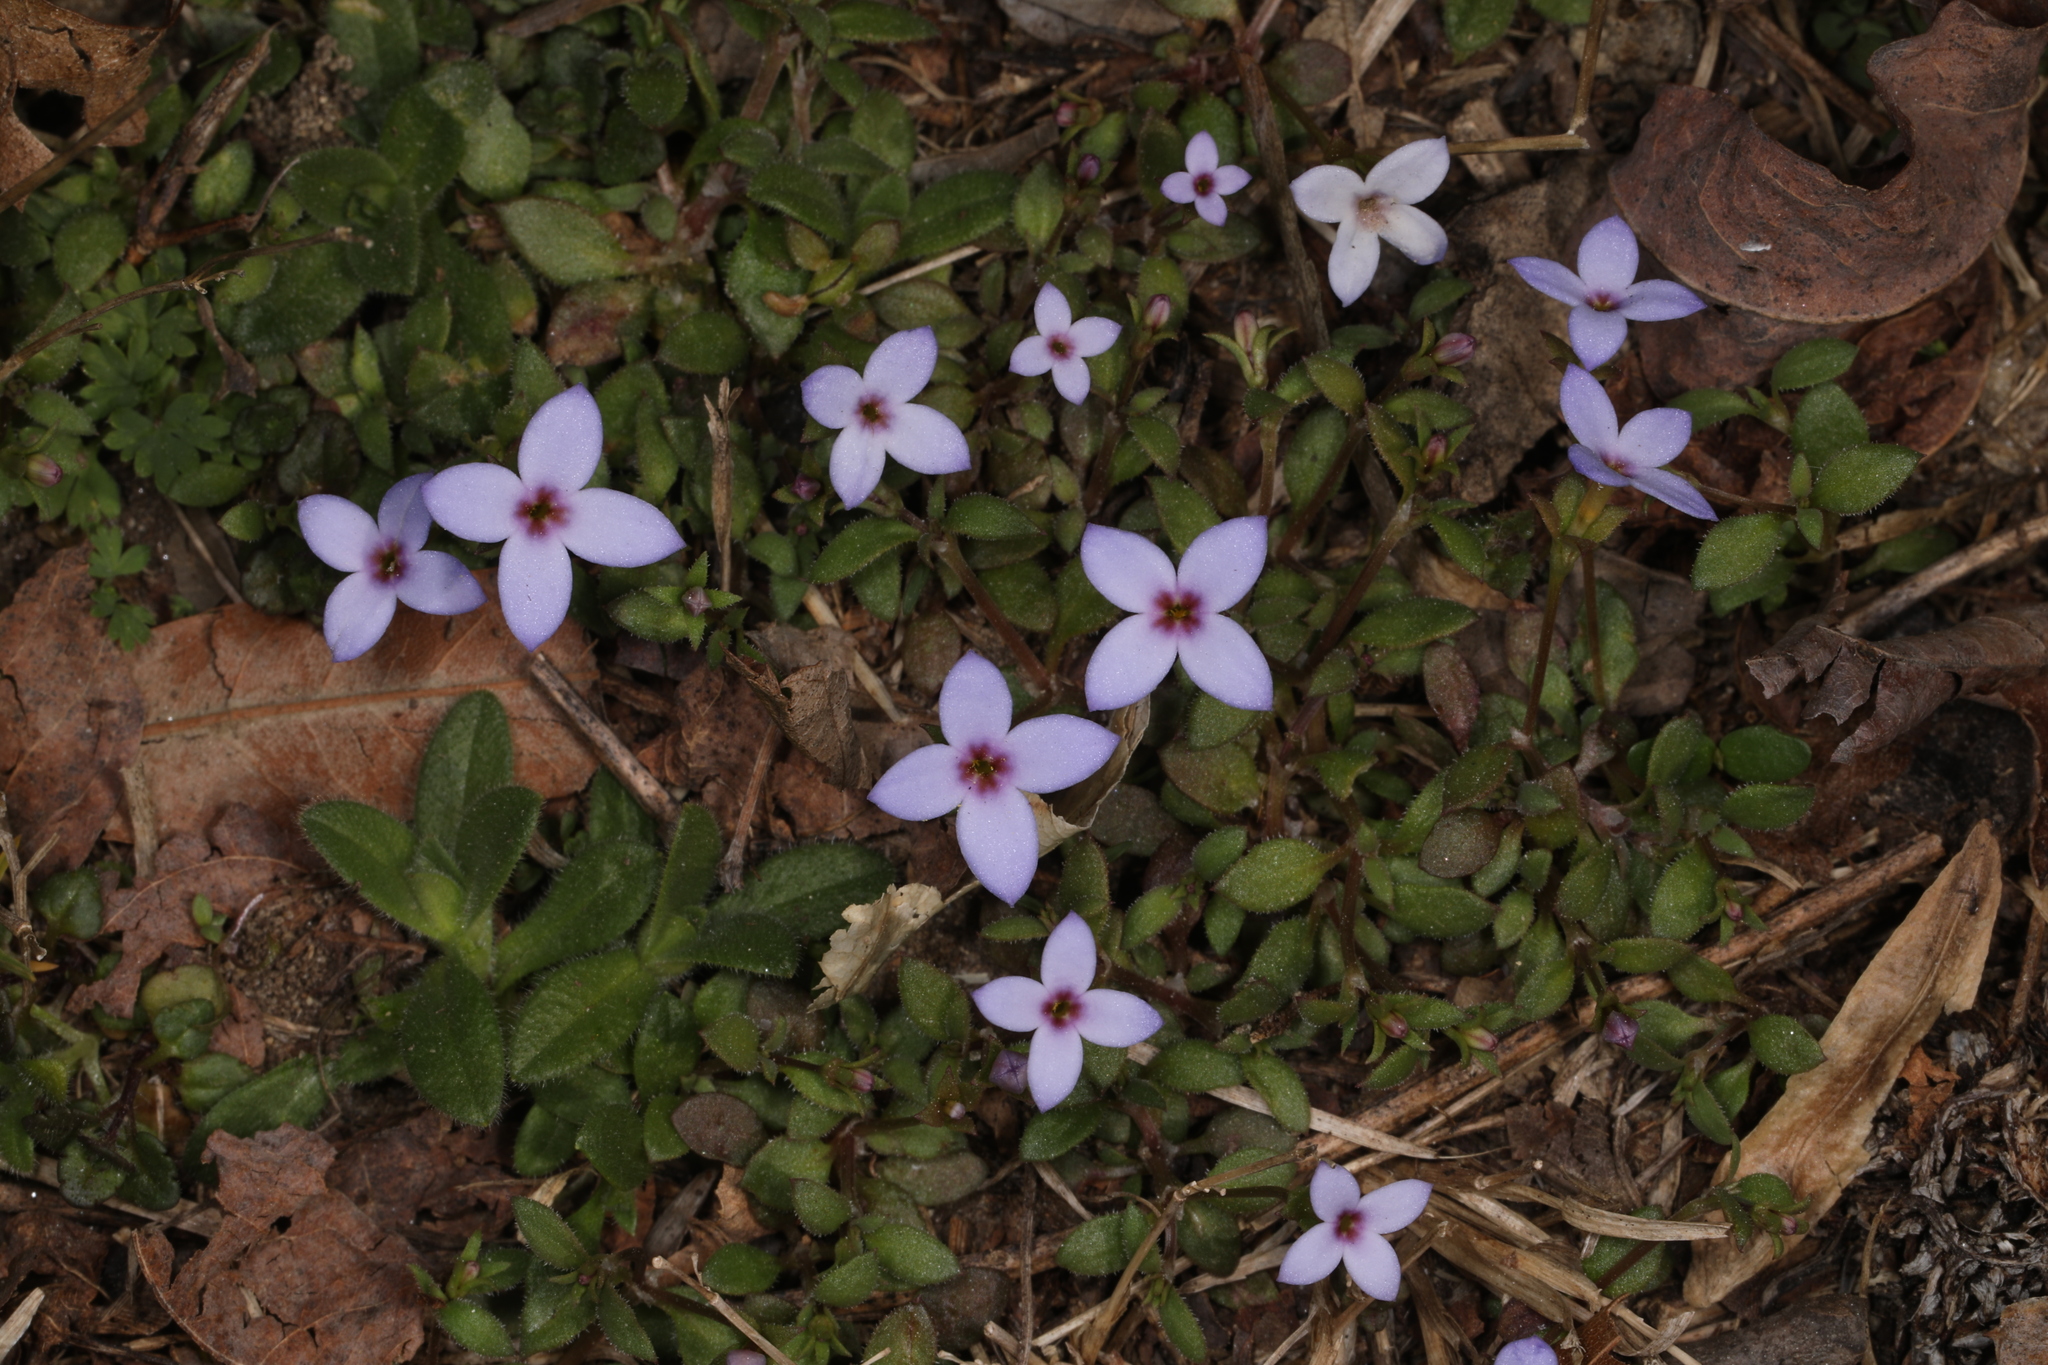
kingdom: Plantae
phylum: Tracheophyta
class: Magnoliopsida
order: Gentianales
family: Rubiaceae
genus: Houstonia
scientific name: Houstonia pusilla
